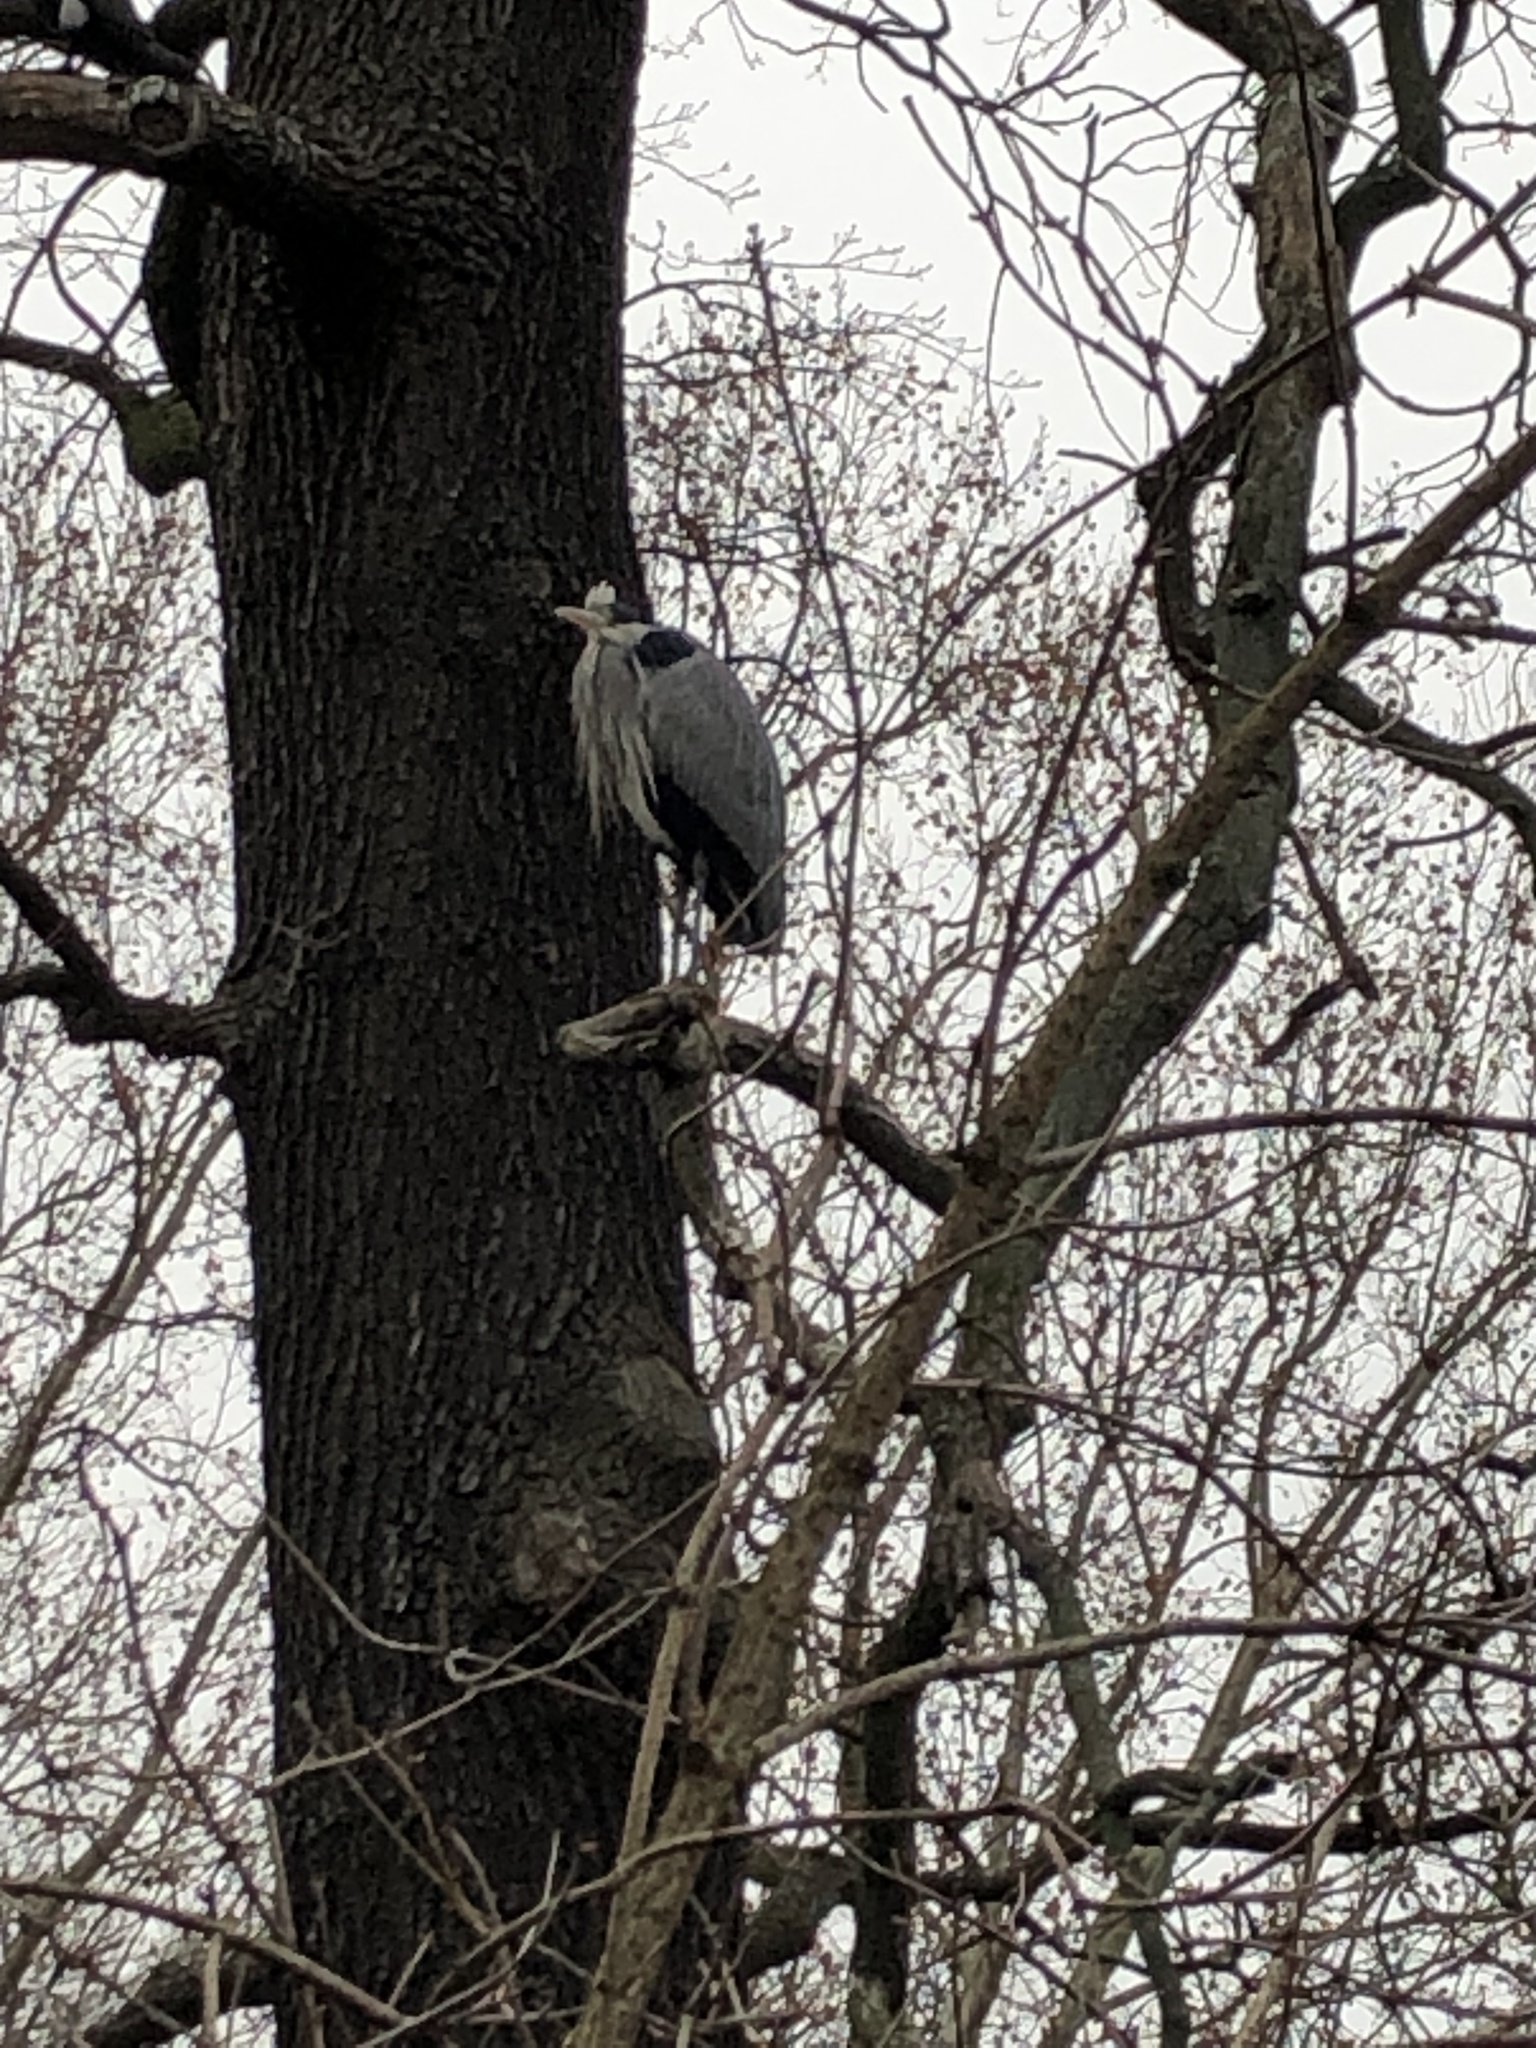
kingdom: Animalia
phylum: Chordata
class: Aves
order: Pelecaniformes
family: Ardeidae
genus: Ardea
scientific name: Ardea cinerea
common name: Grey heron
